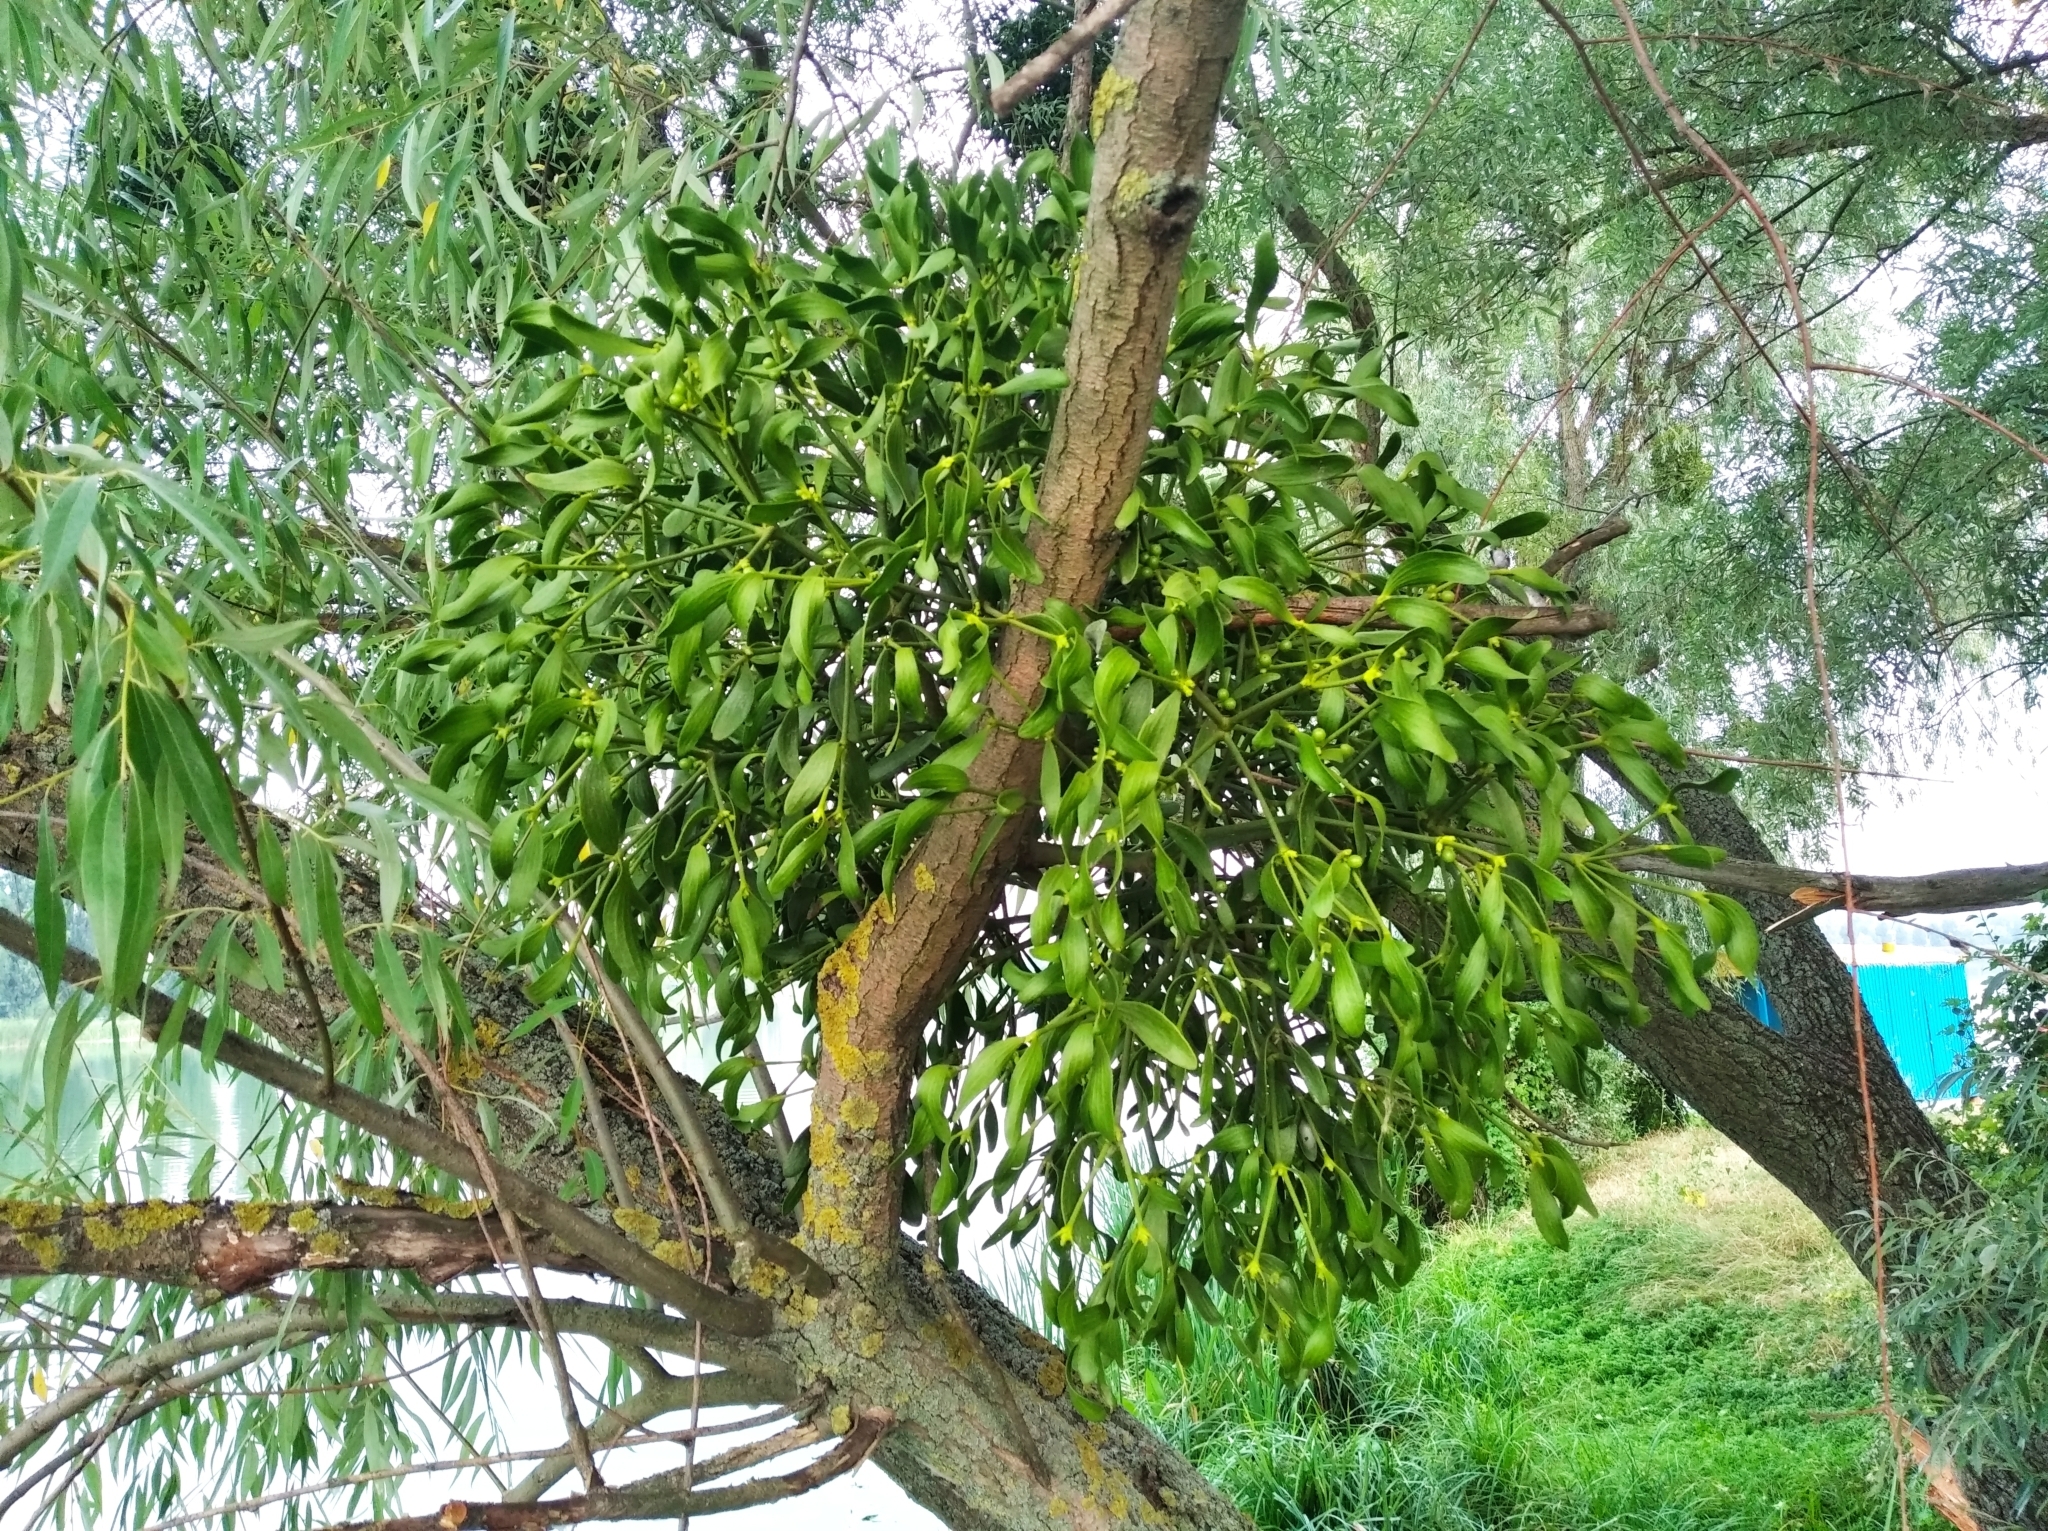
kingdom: Plantae
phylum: Tracheophyta
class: Magnoliopsida
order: Santalales
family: Viscaceae
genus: Viscum
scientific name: Viscum album
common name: Mistletoe
